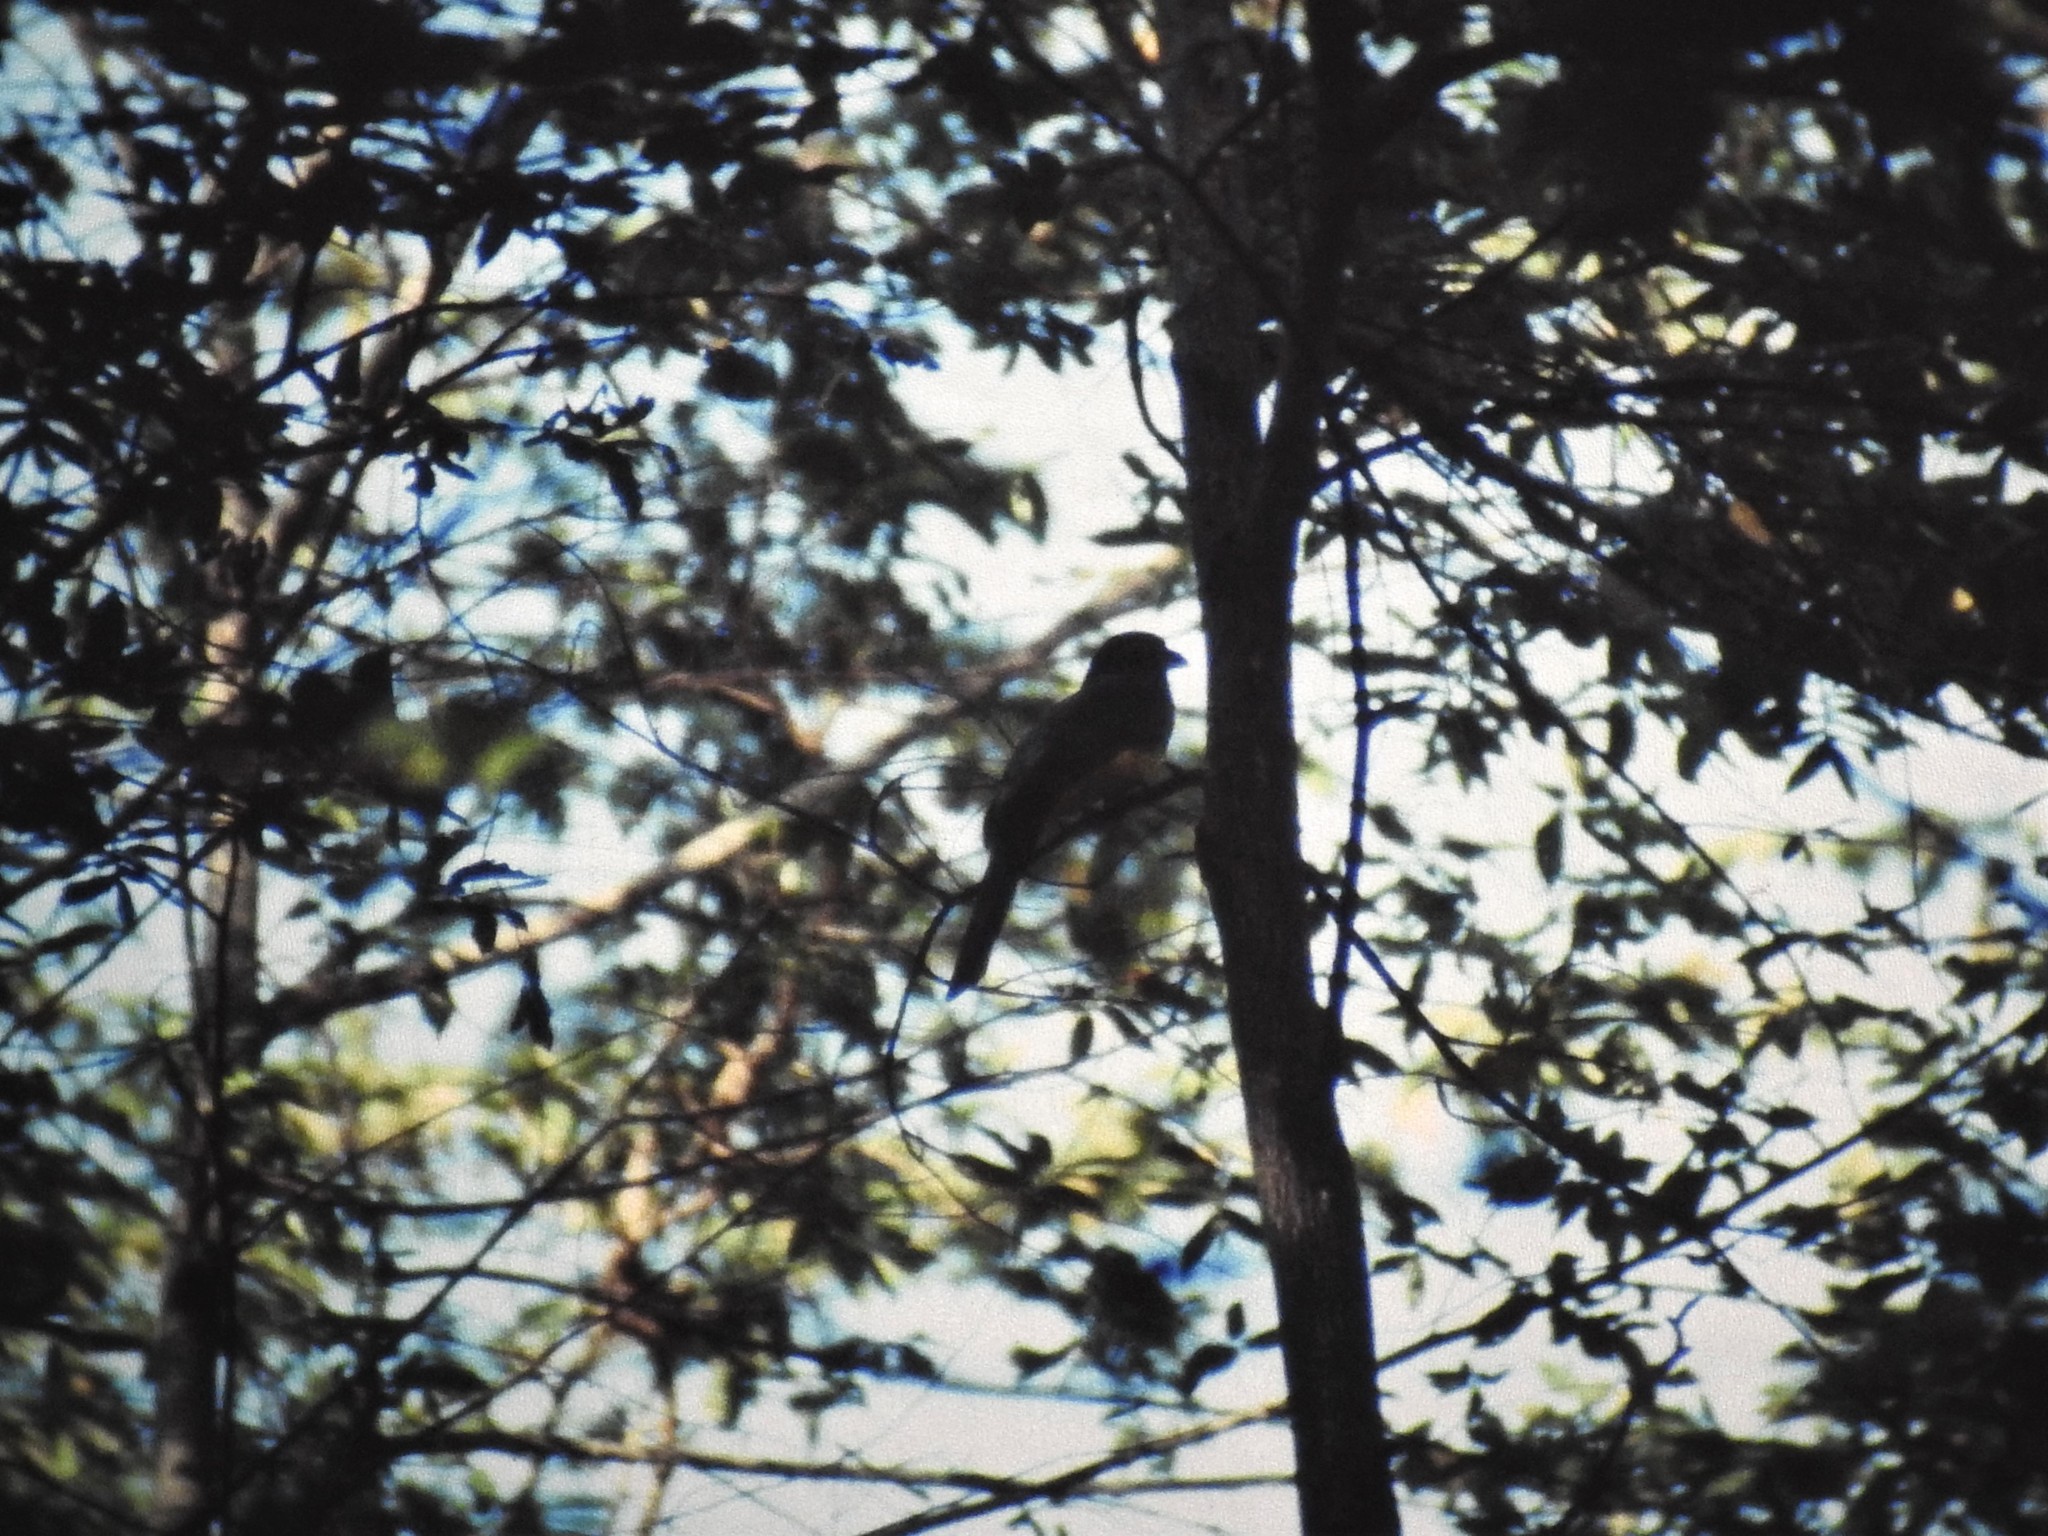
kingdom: Animalia
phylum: Chordata
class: Aves
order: Trogoniformes
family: Trogonidae
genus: Trogon
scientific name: Trogon melanocephalus
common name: Black-headed trogon
